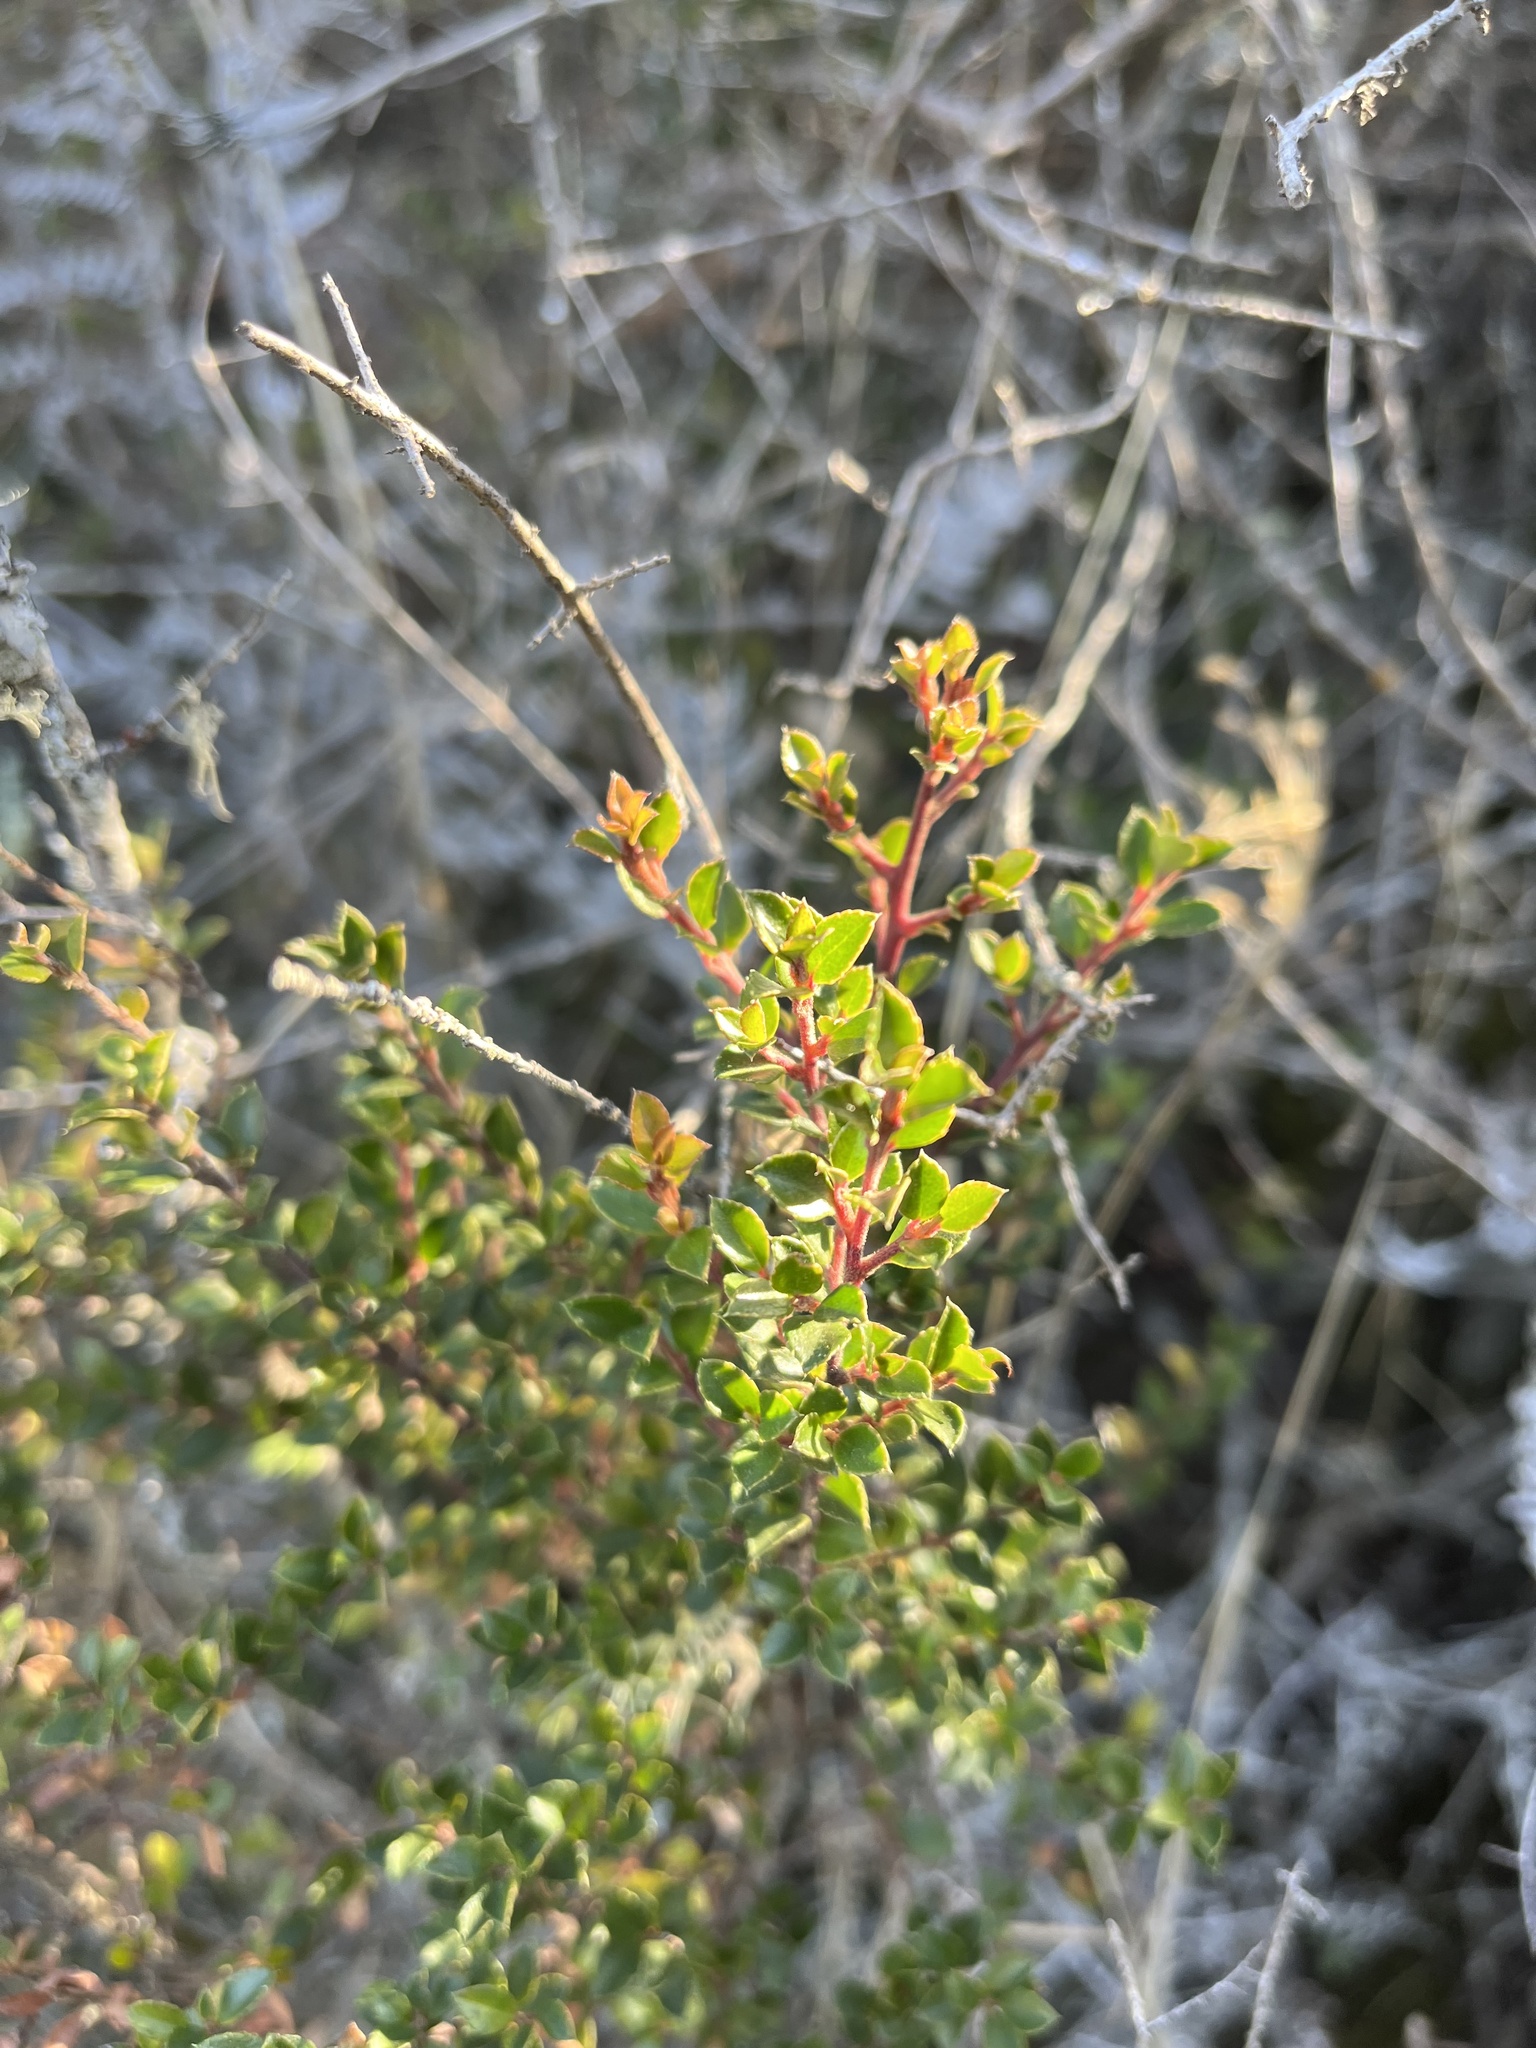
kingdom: Plantae
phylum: Tracheophyta
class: Magnoliopsida
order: Ericales
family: Primulaceae
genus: Myrsine
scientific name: Myrsine africana
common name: African-boxwood
